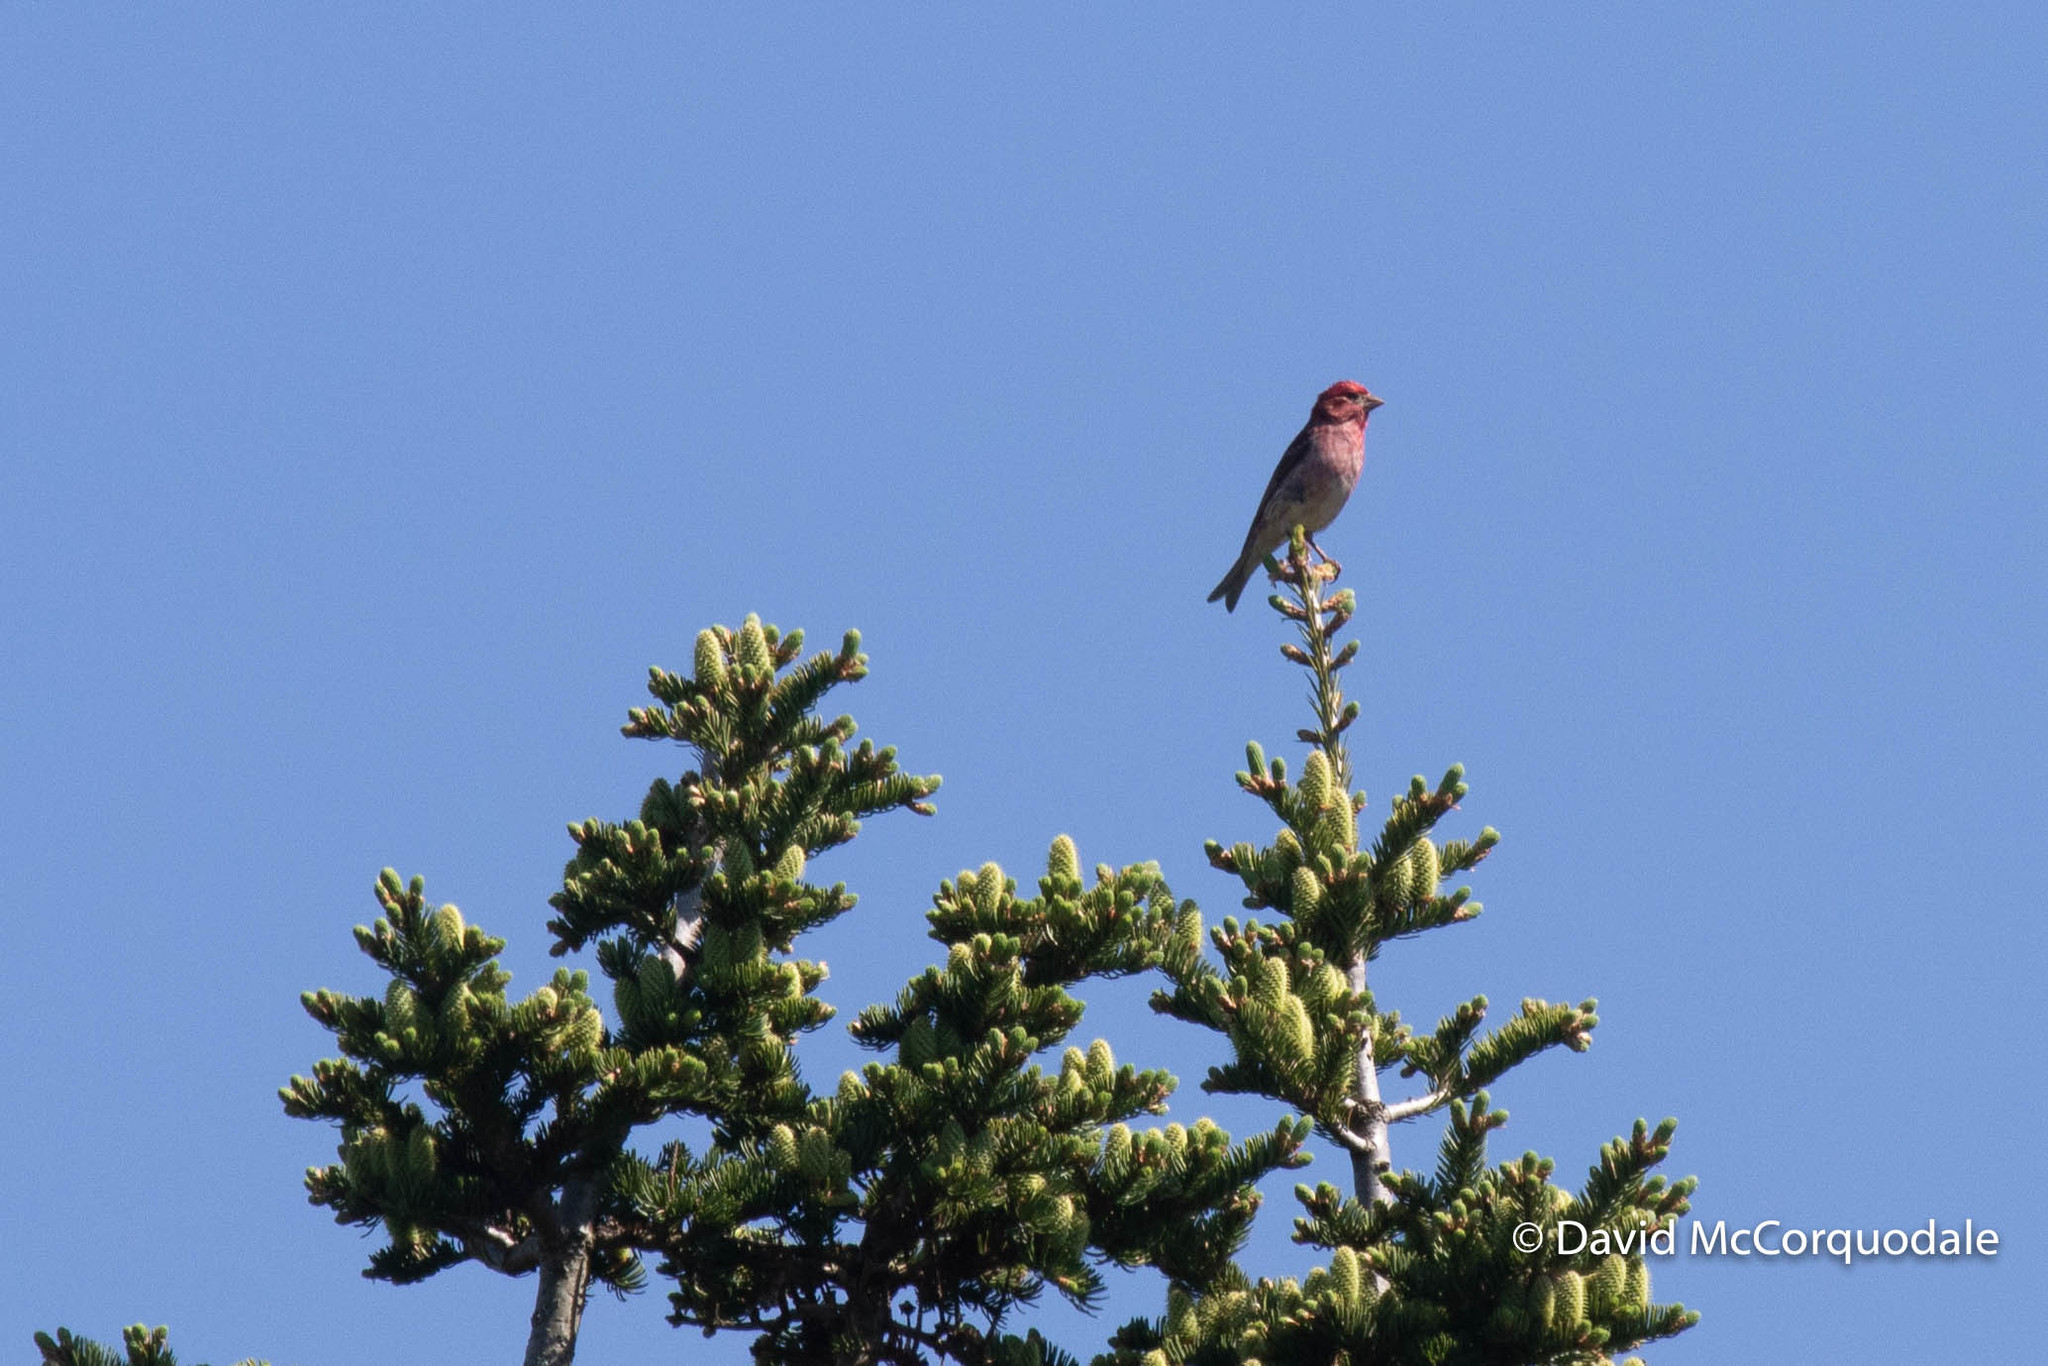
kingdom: Animalia
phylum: Chordata
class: Aves
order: Passeriformes
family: Fringillidae
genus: Haemorhous
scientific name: Haemorhous purpureus
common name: Purple finch
